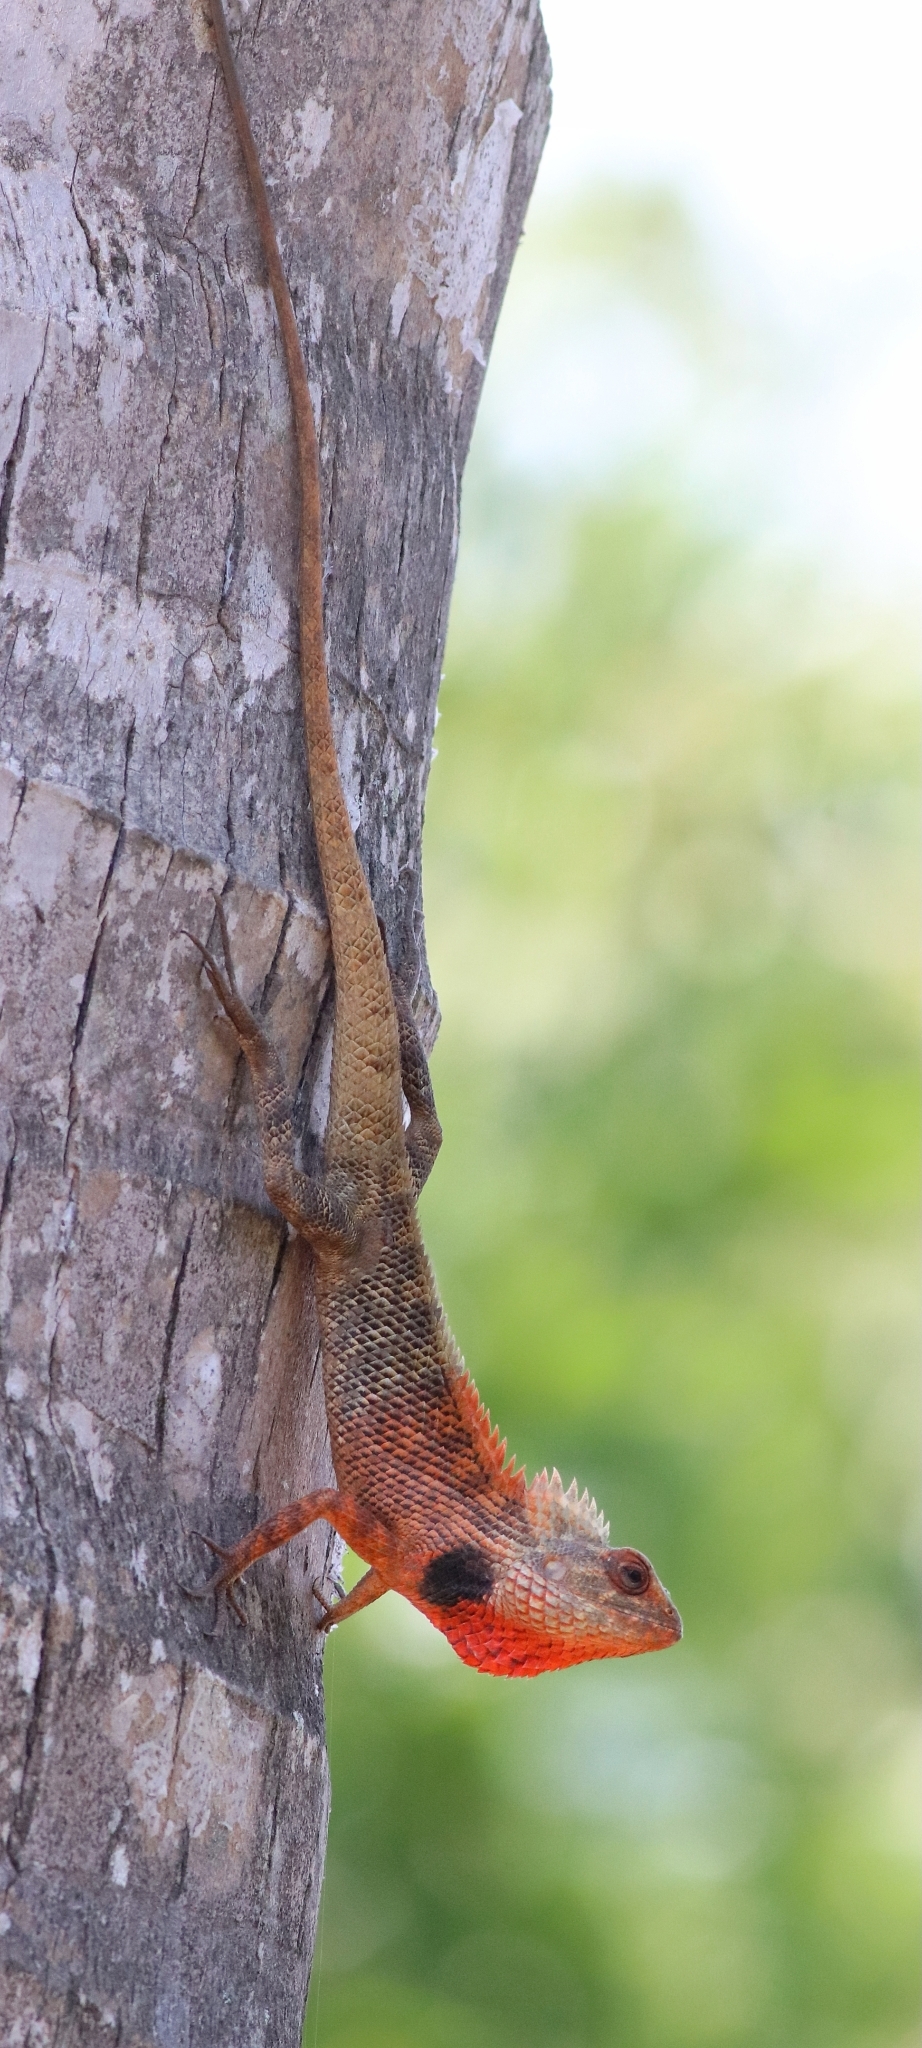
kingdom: Animalia
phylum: Chordata
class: Squamata
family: Agamidae
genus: Calotes
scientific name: Calotes versicolor
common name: Oriental garden lizard
